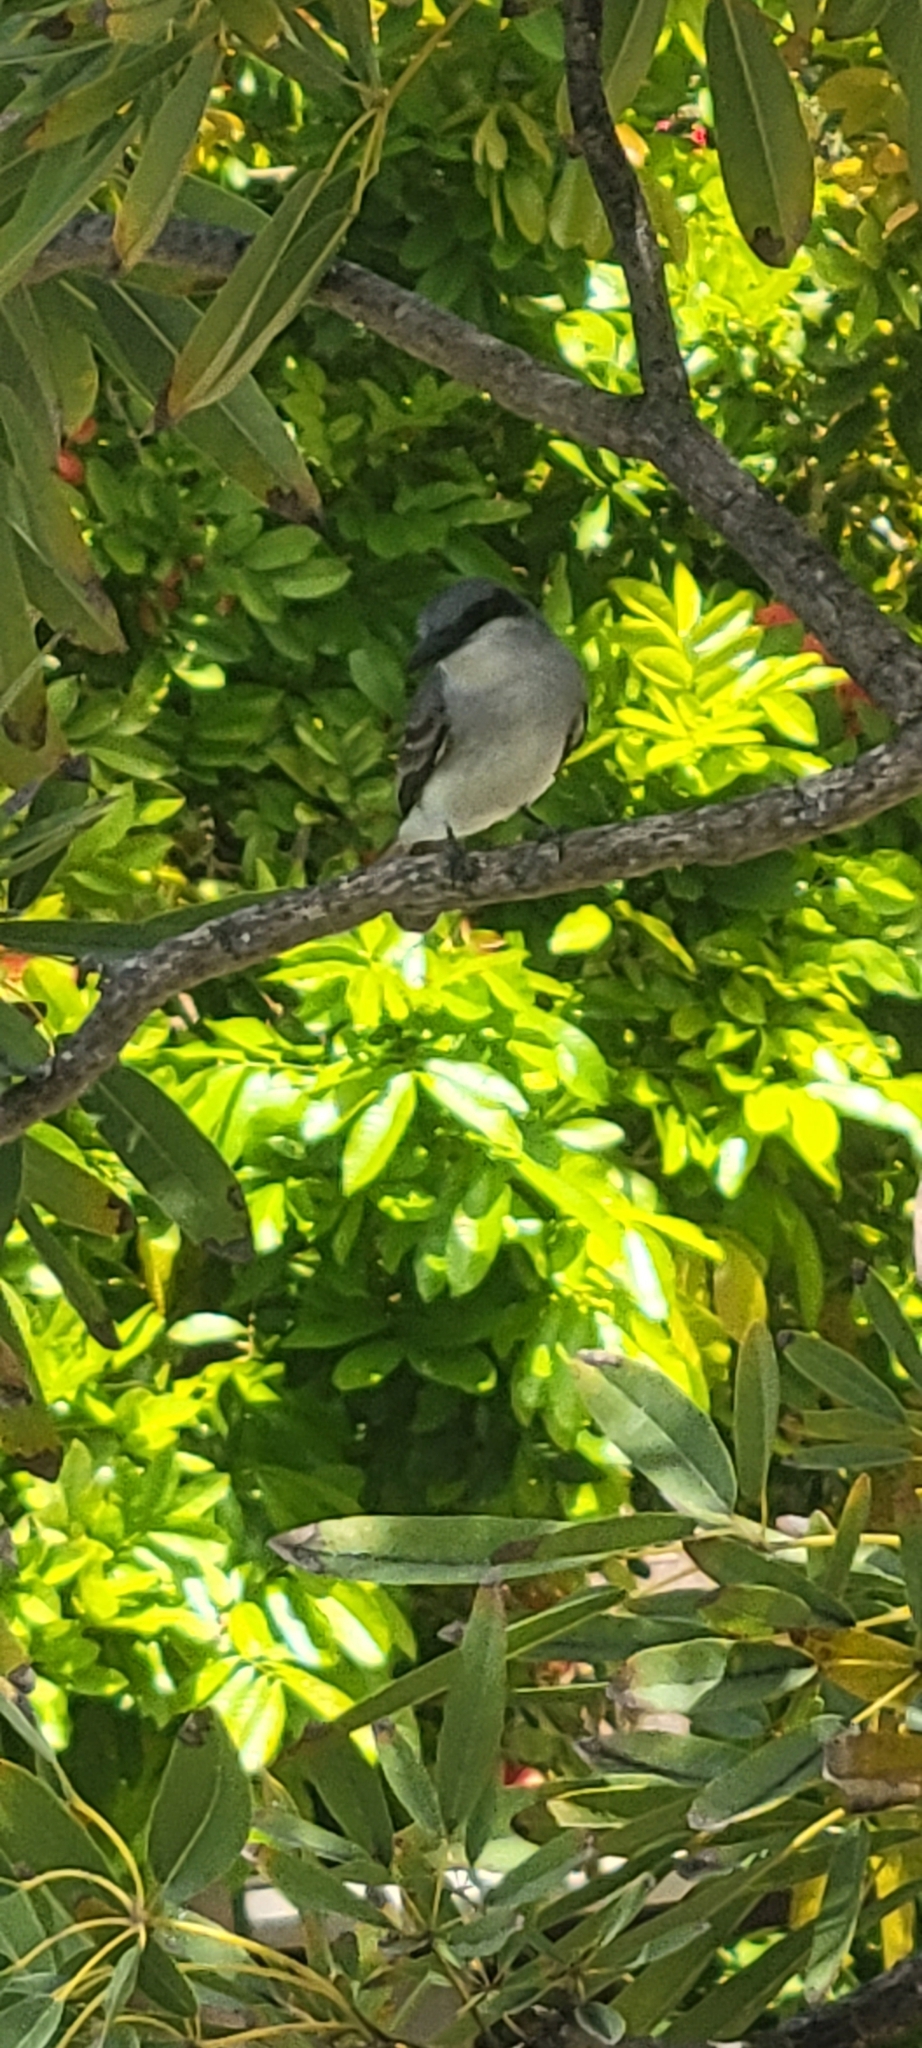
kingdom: Animalia
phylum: Chordata
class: Aves
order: Passeriformes
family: Tyrannidae
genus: Tyrannus
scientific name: Tyrannus dominicensis
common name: Gray kingbird
